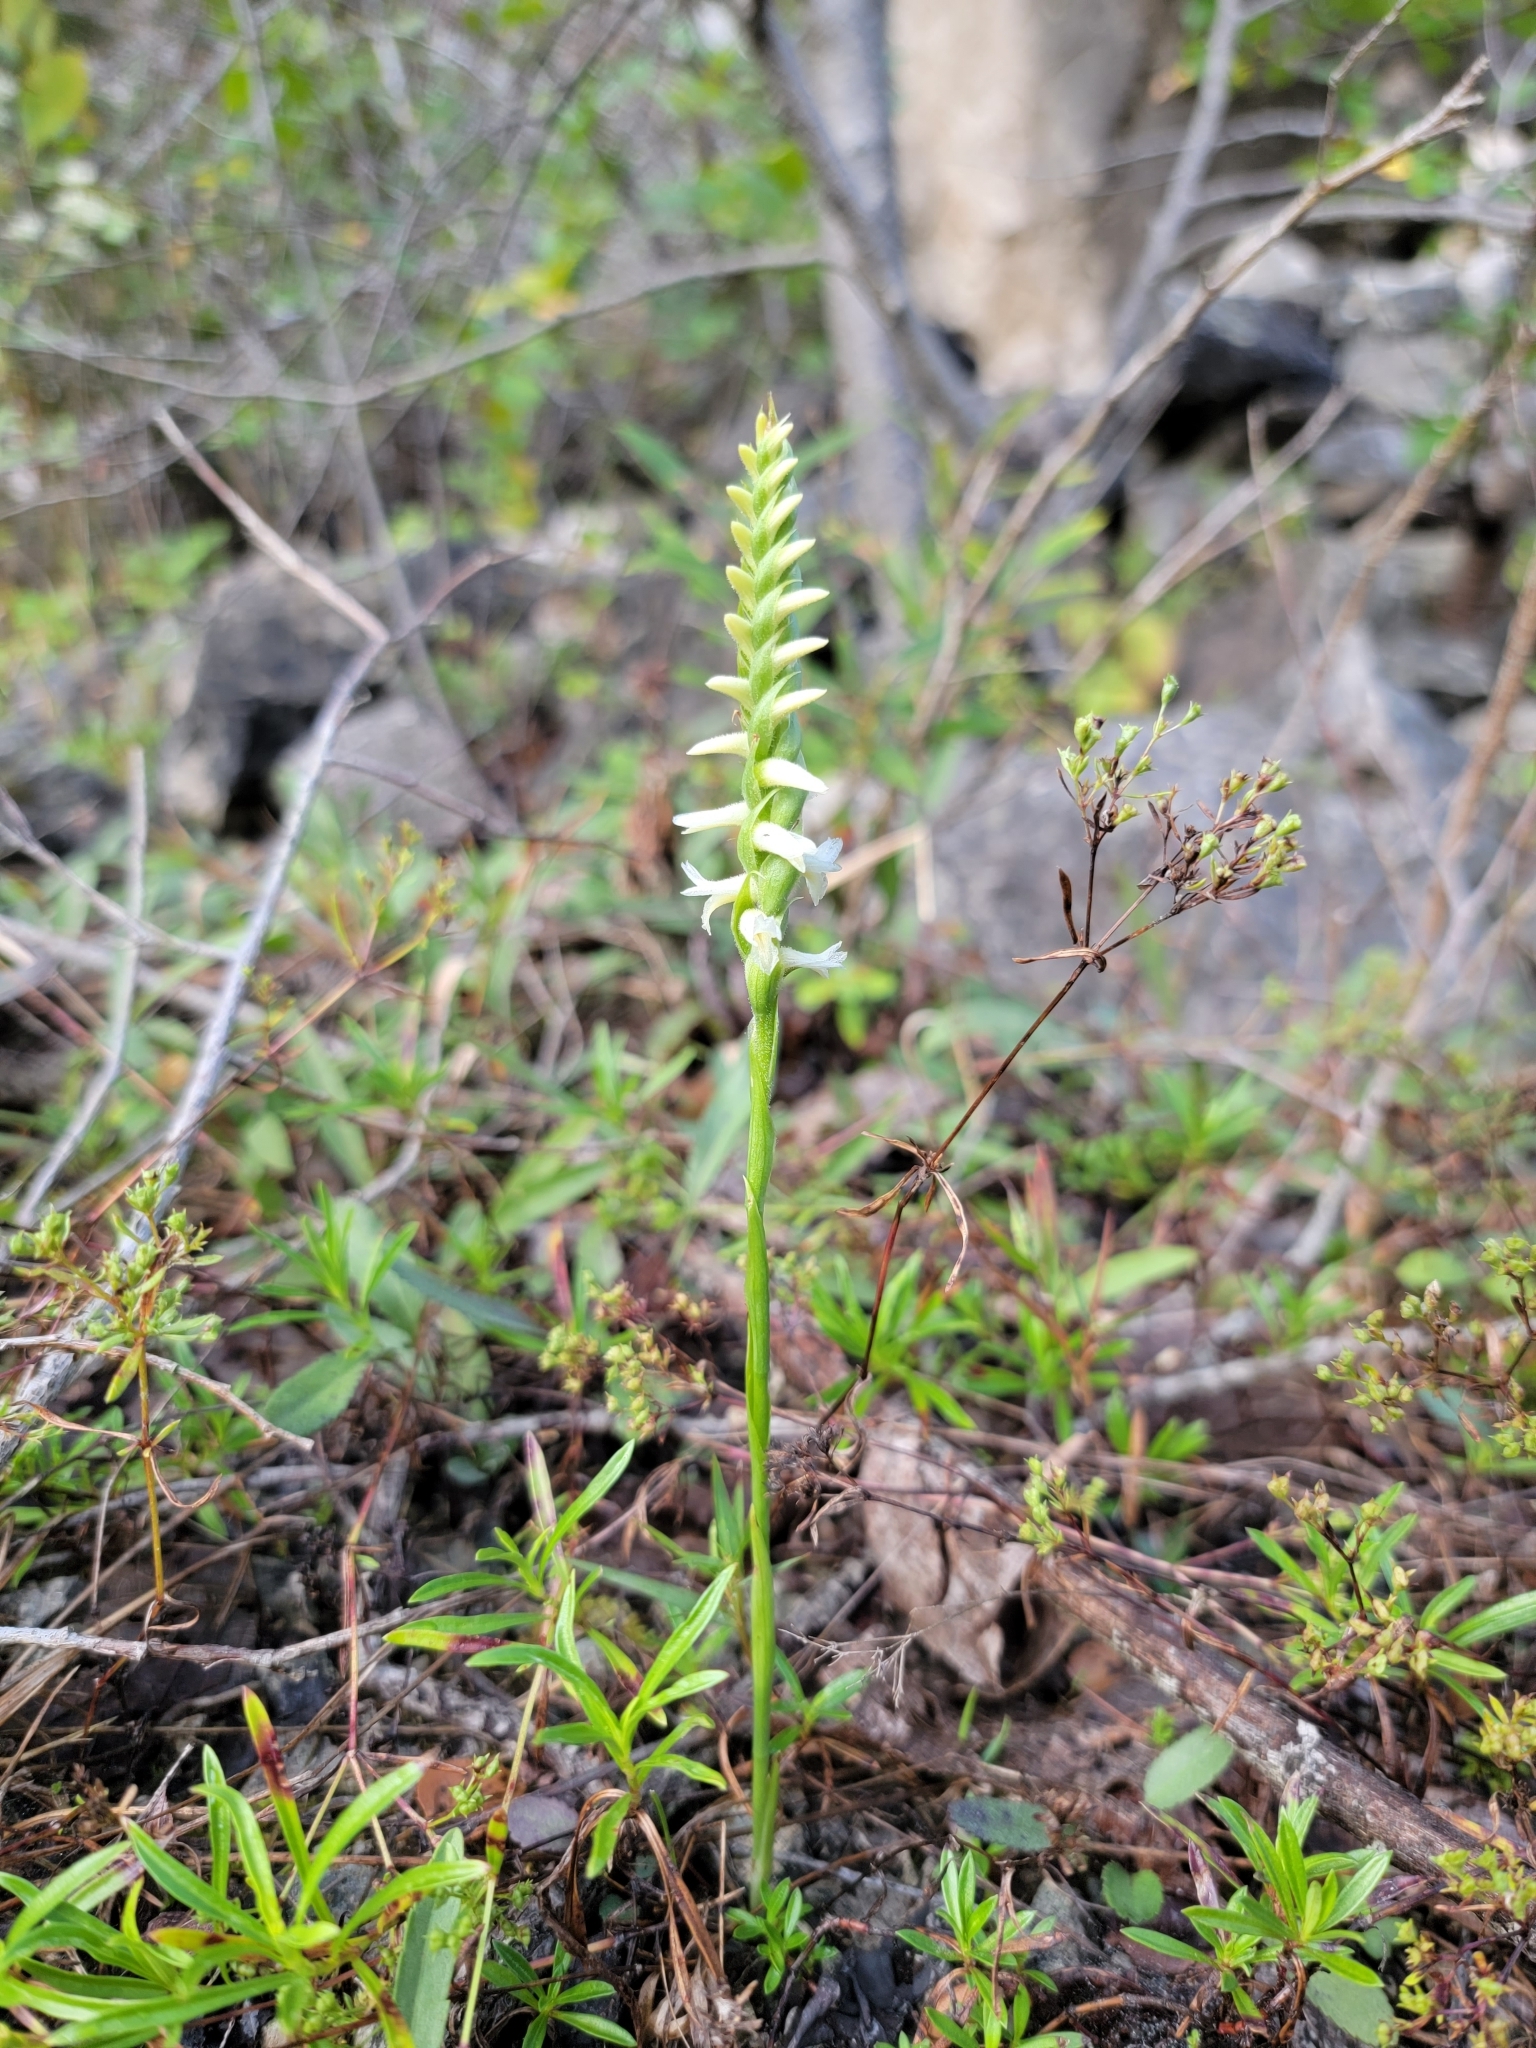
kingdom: Plantae
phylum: Tracheophyta
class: Liliopsida
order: Asparagales
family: Orchidaceae
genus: Spiranthes
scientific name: Spiranthes magnicamporum
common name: Great plains ladies'-tresses
